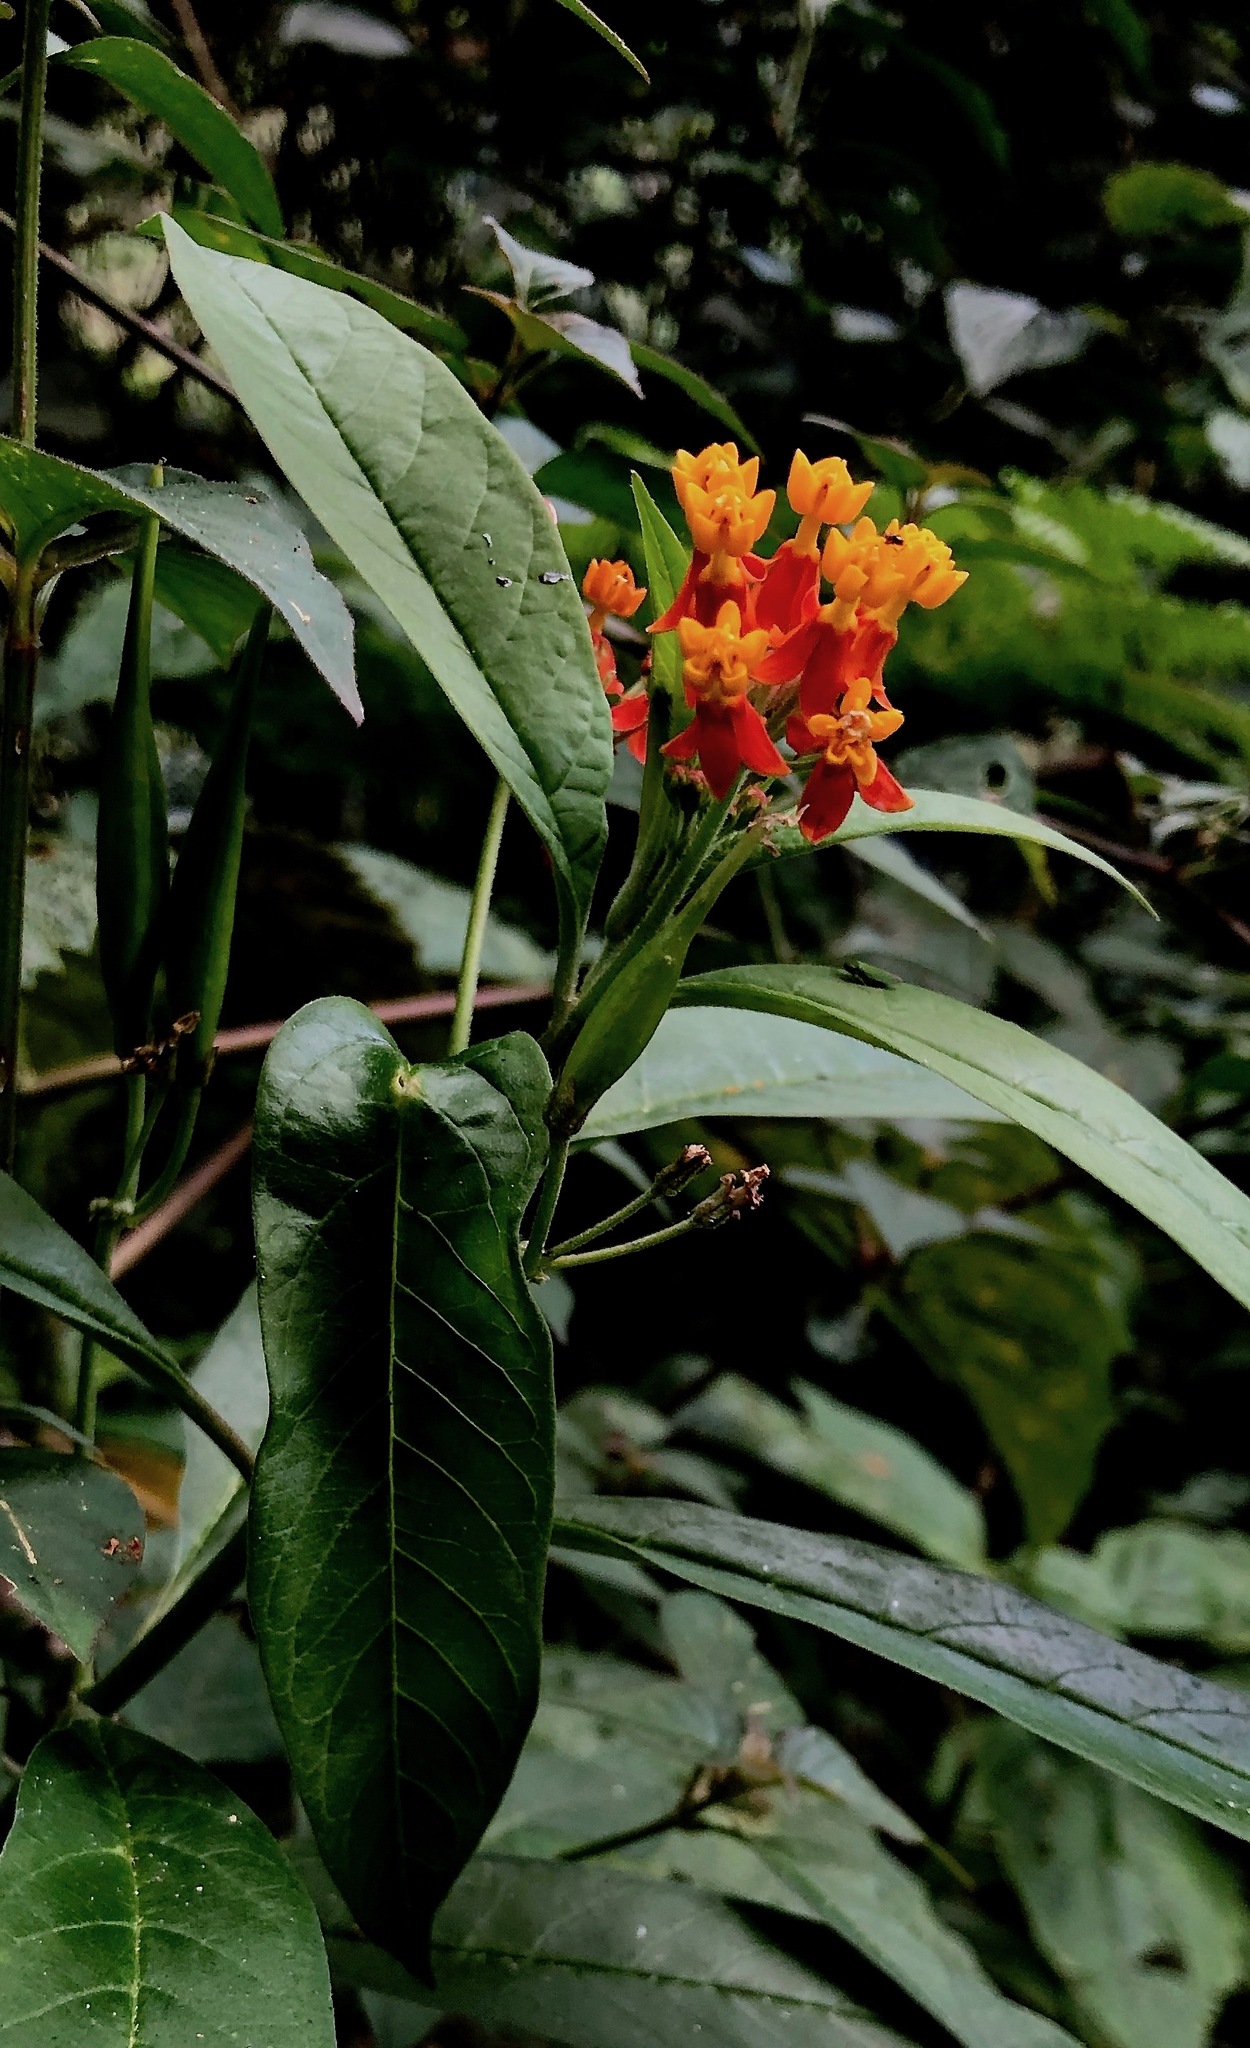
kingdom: Plantae
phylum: Tracheophyta
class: Magnoliopsida
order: Gentianales
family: Apocynaceae
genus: Asclepias
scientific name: Asclepias curassavica
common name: Bloodflower
